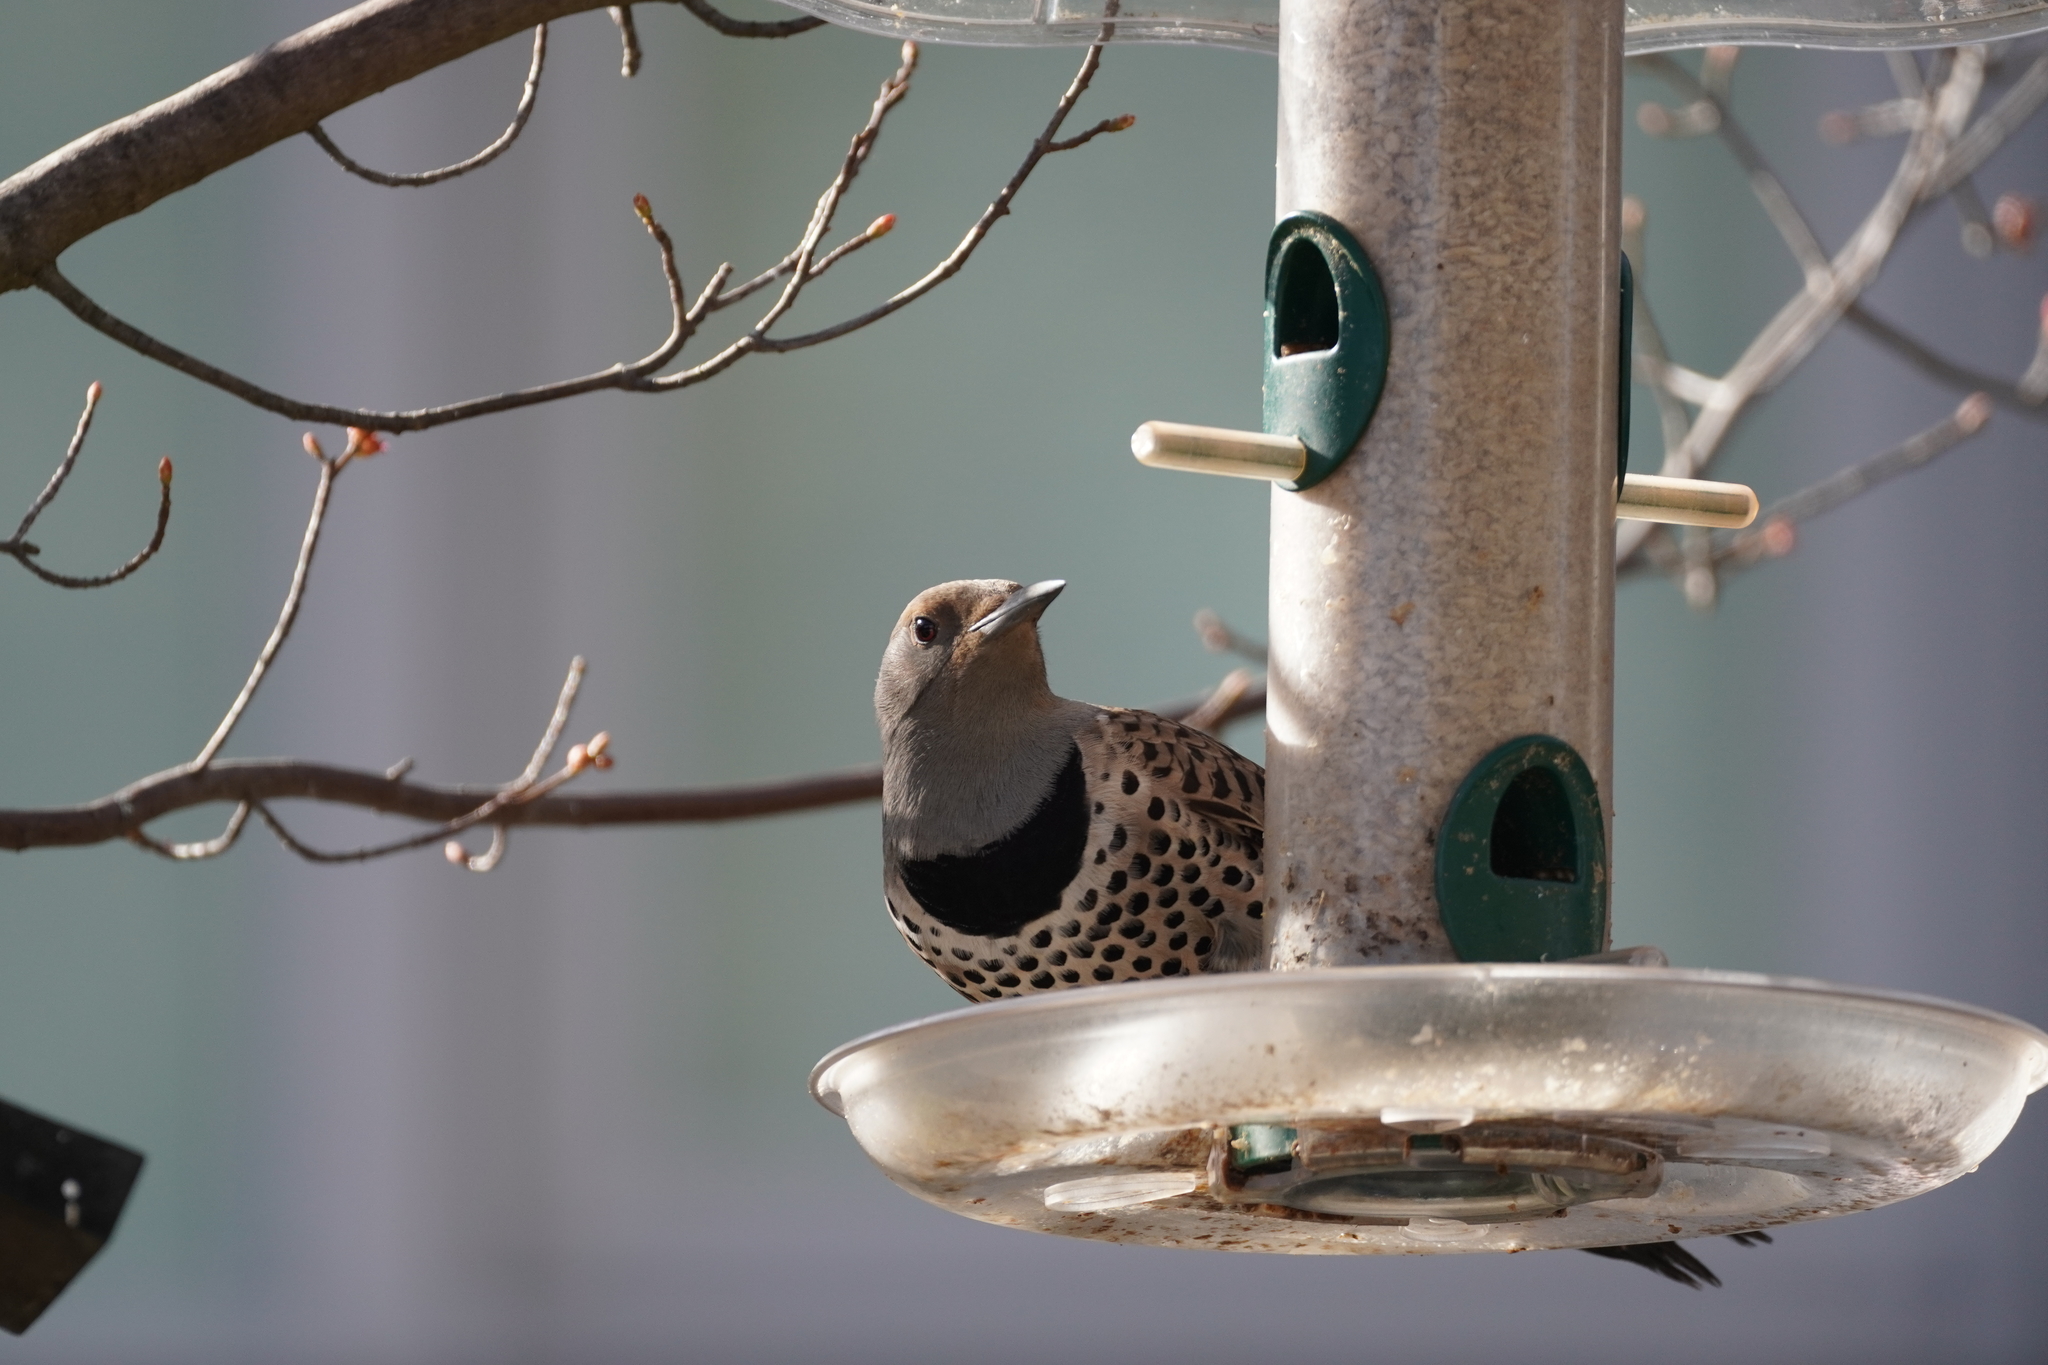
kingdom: Animalia
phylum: Chordata
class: Aves
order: Piciformes
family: Picidae
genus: Colaptes
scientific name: Colaptes auratus
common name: Northern flicker
